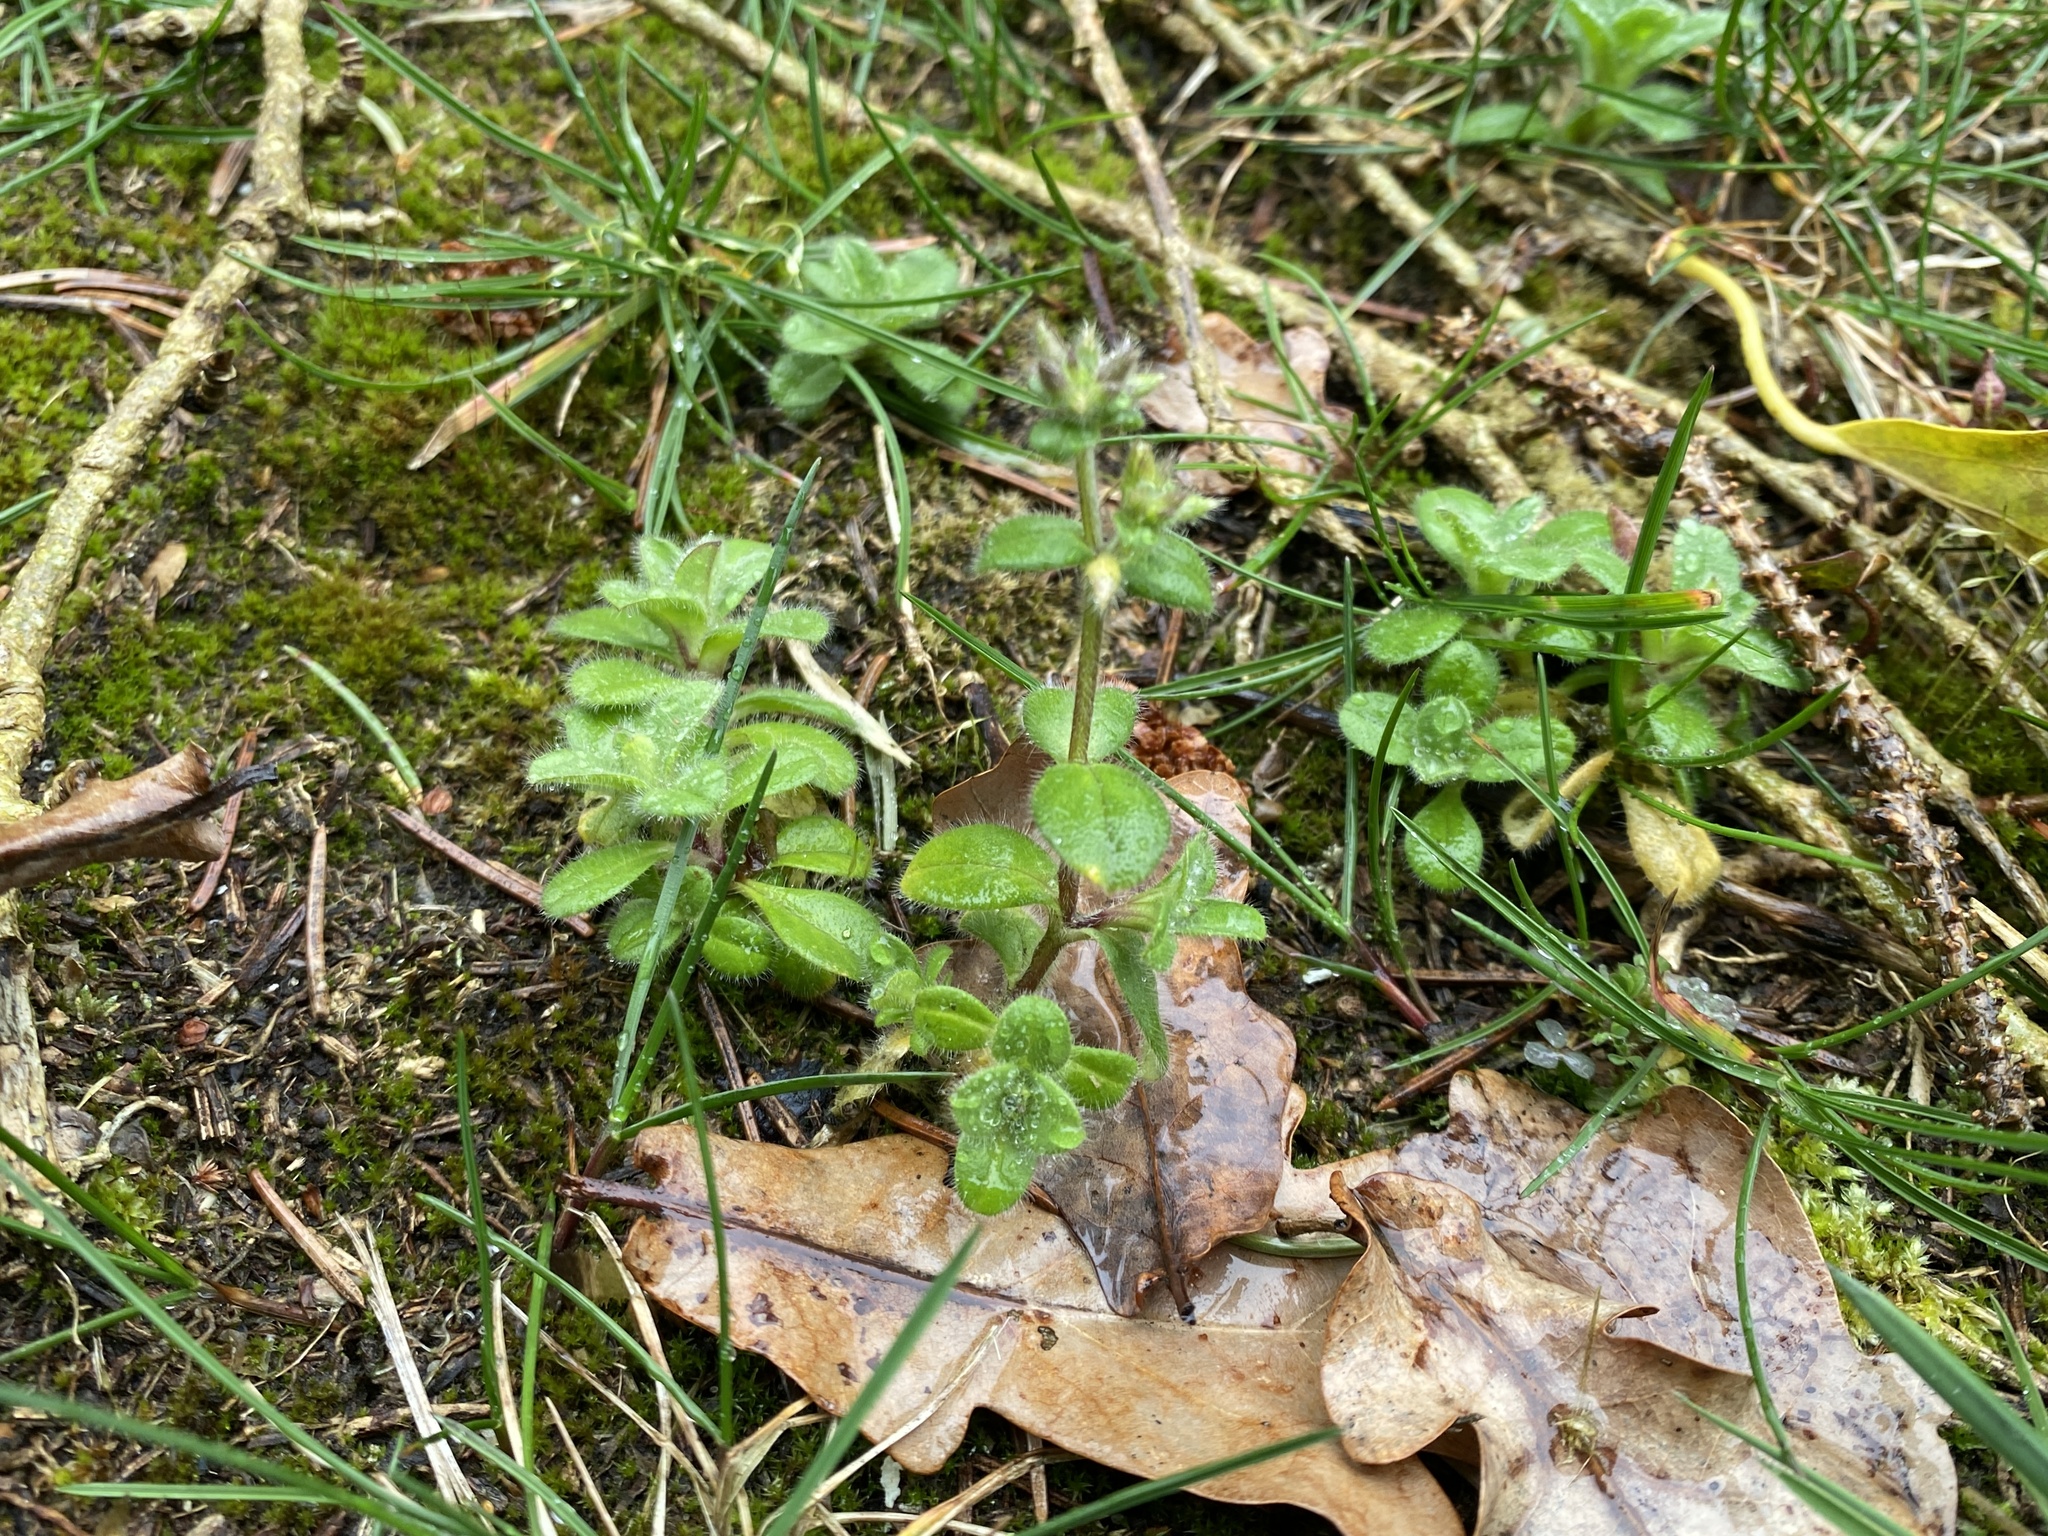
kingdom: Plantae
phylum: Tracheophyta
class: Magnoliopsida
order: Caryophyllales
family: Caryophyllaceae
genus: Cerastium
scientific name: Cerastium glomeratum
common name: Sticky chickweed
